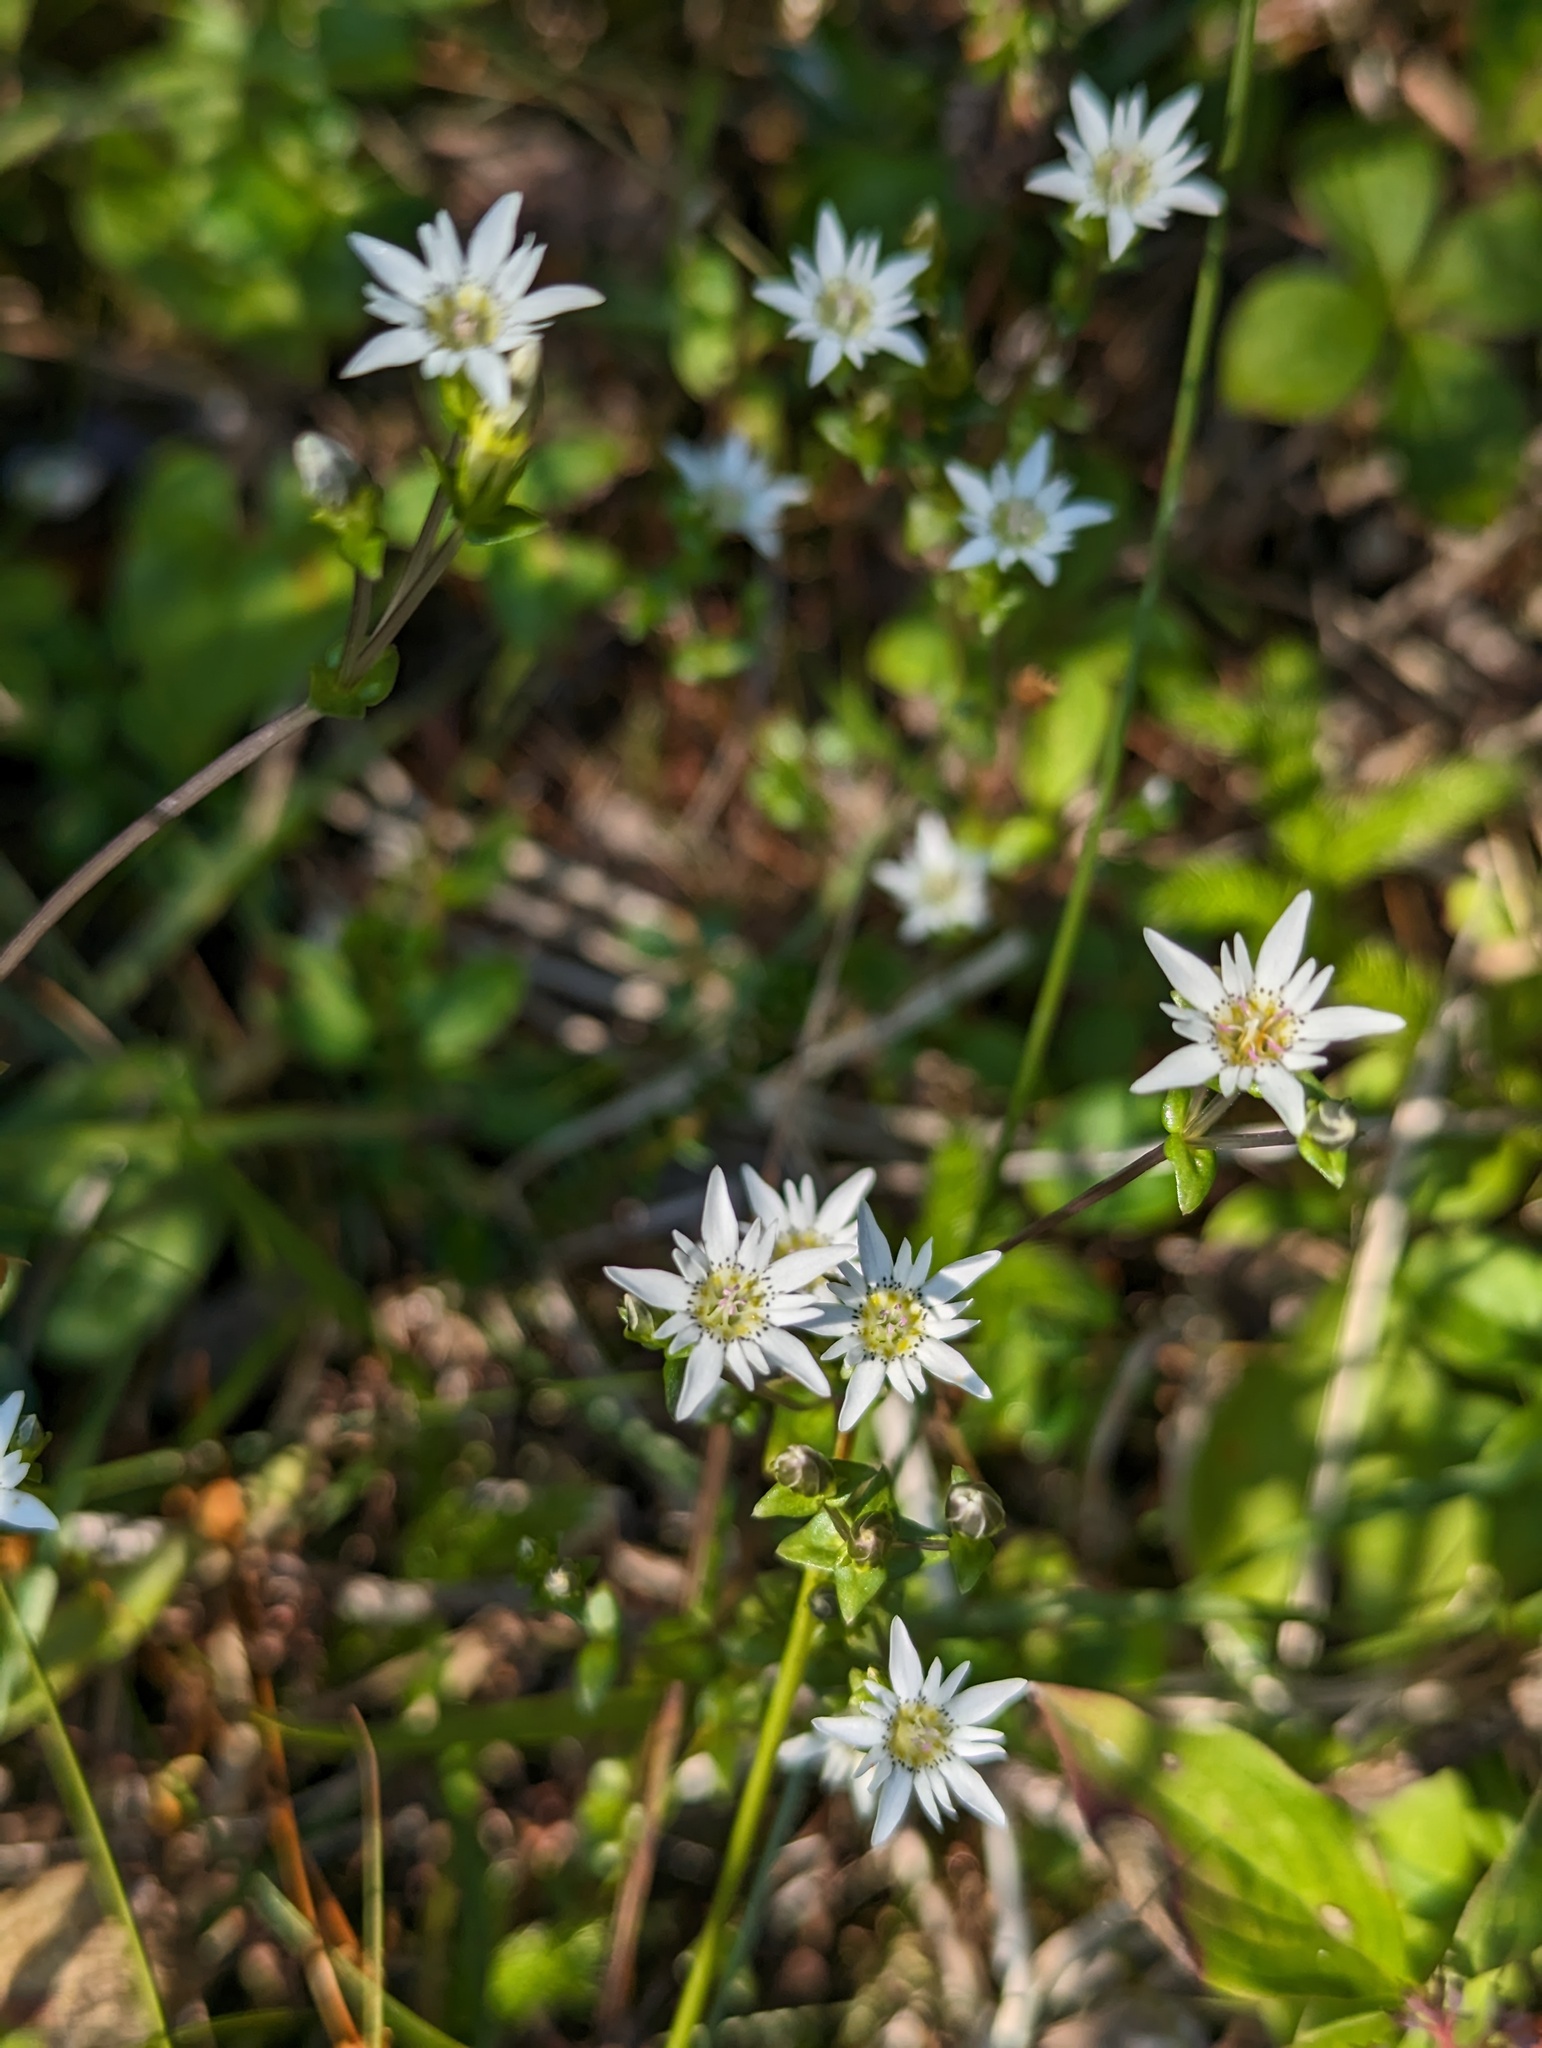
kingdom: Plantae
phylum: Tracheophyta
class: Magnoliopsida
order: Gentianales
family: Gentianaceae
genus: Gentiana
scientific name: Gentiana douglasiana
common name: Swamp gentian
